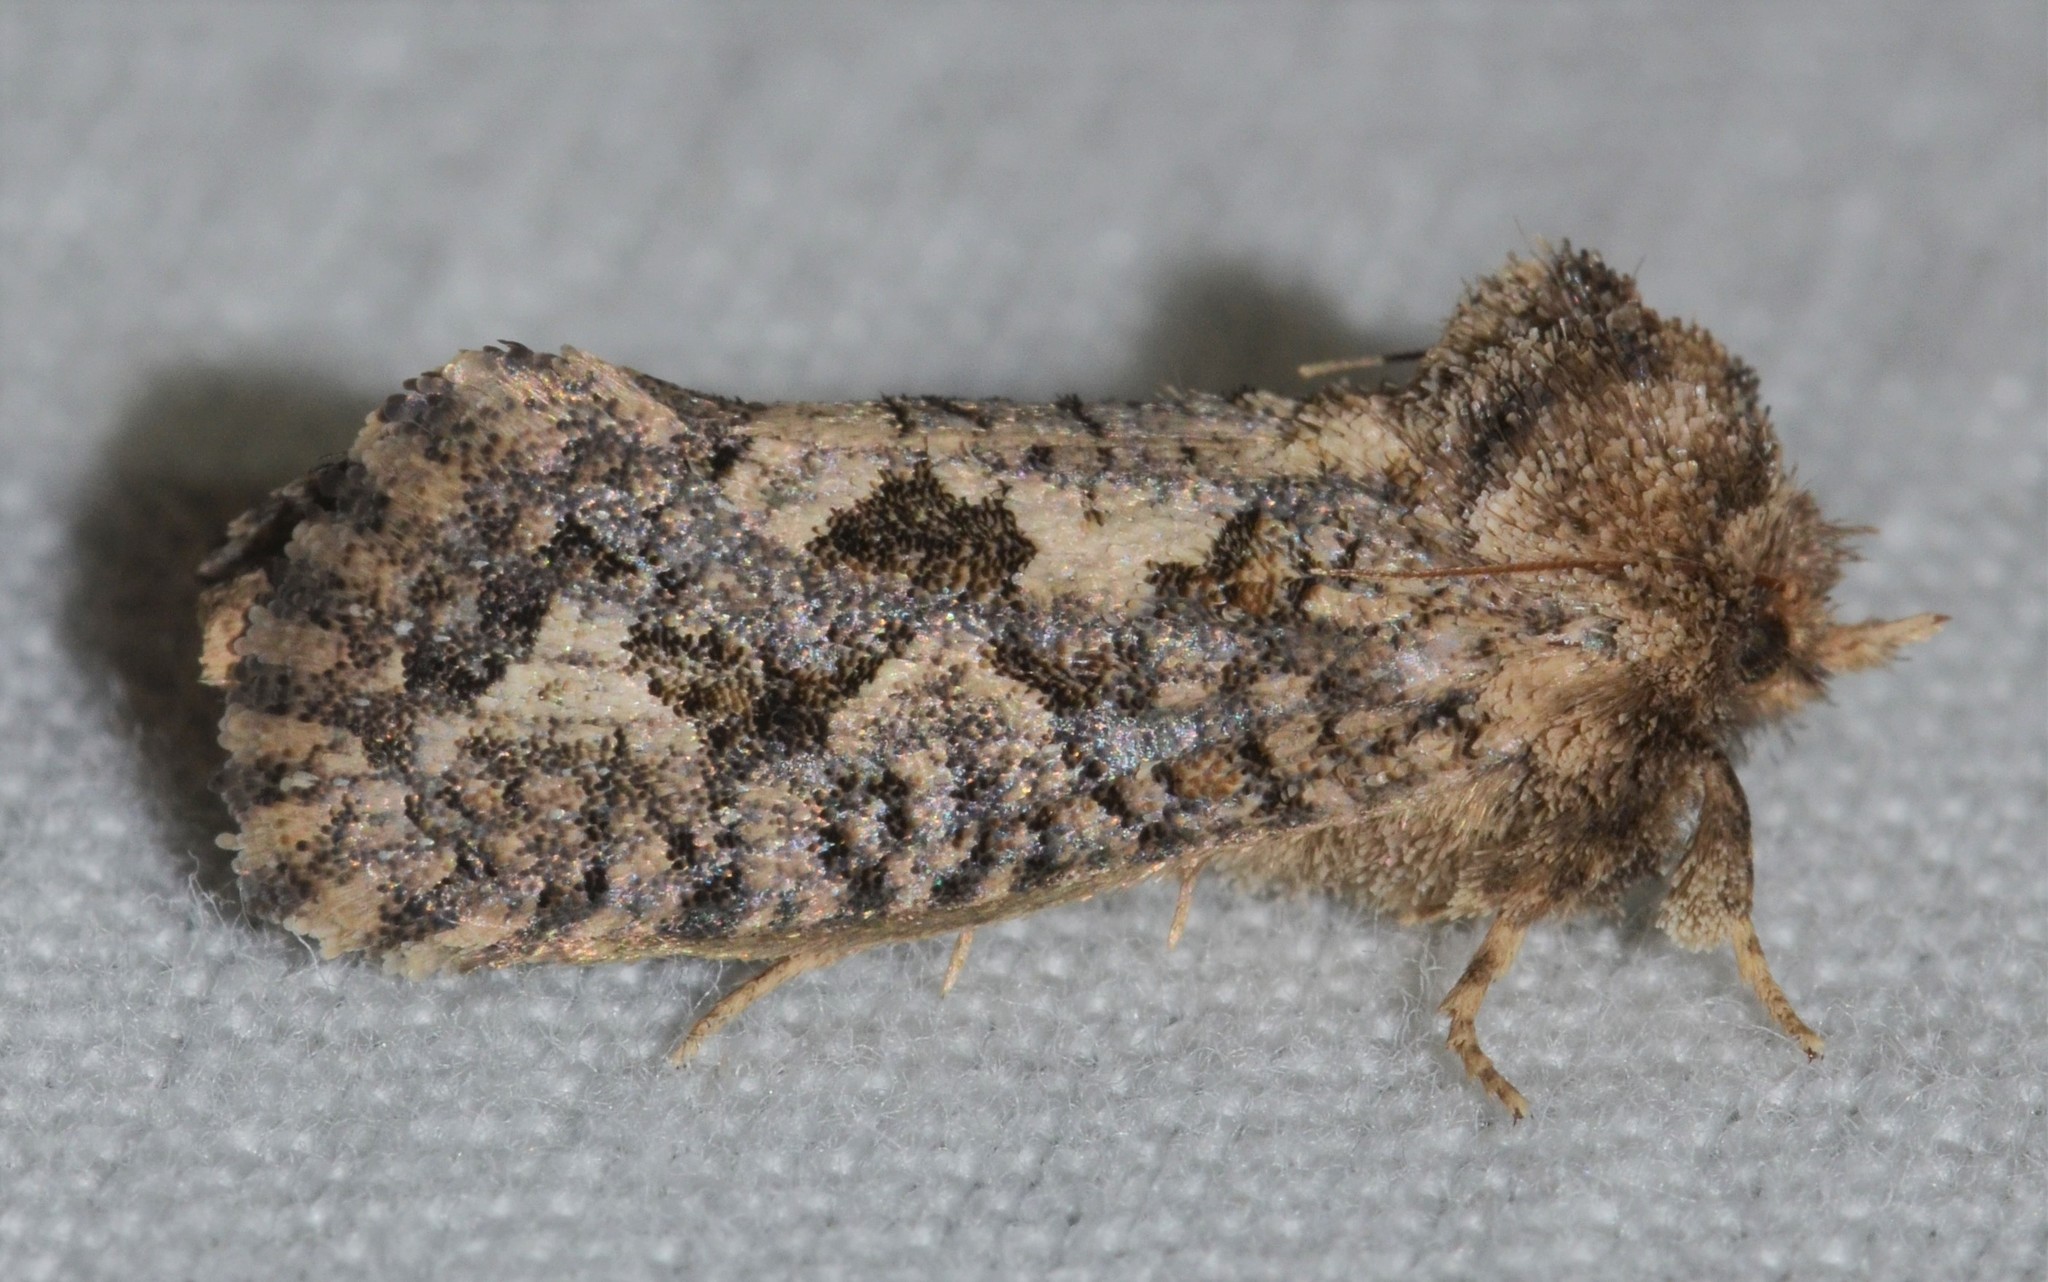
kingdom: Animalia
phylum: Arthropoda
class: Insecta
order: Lepidoptera
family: Tineidae
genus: Acrolophus
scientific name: Acrolophus arcanella
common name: Arcane grass tubeworm moth
